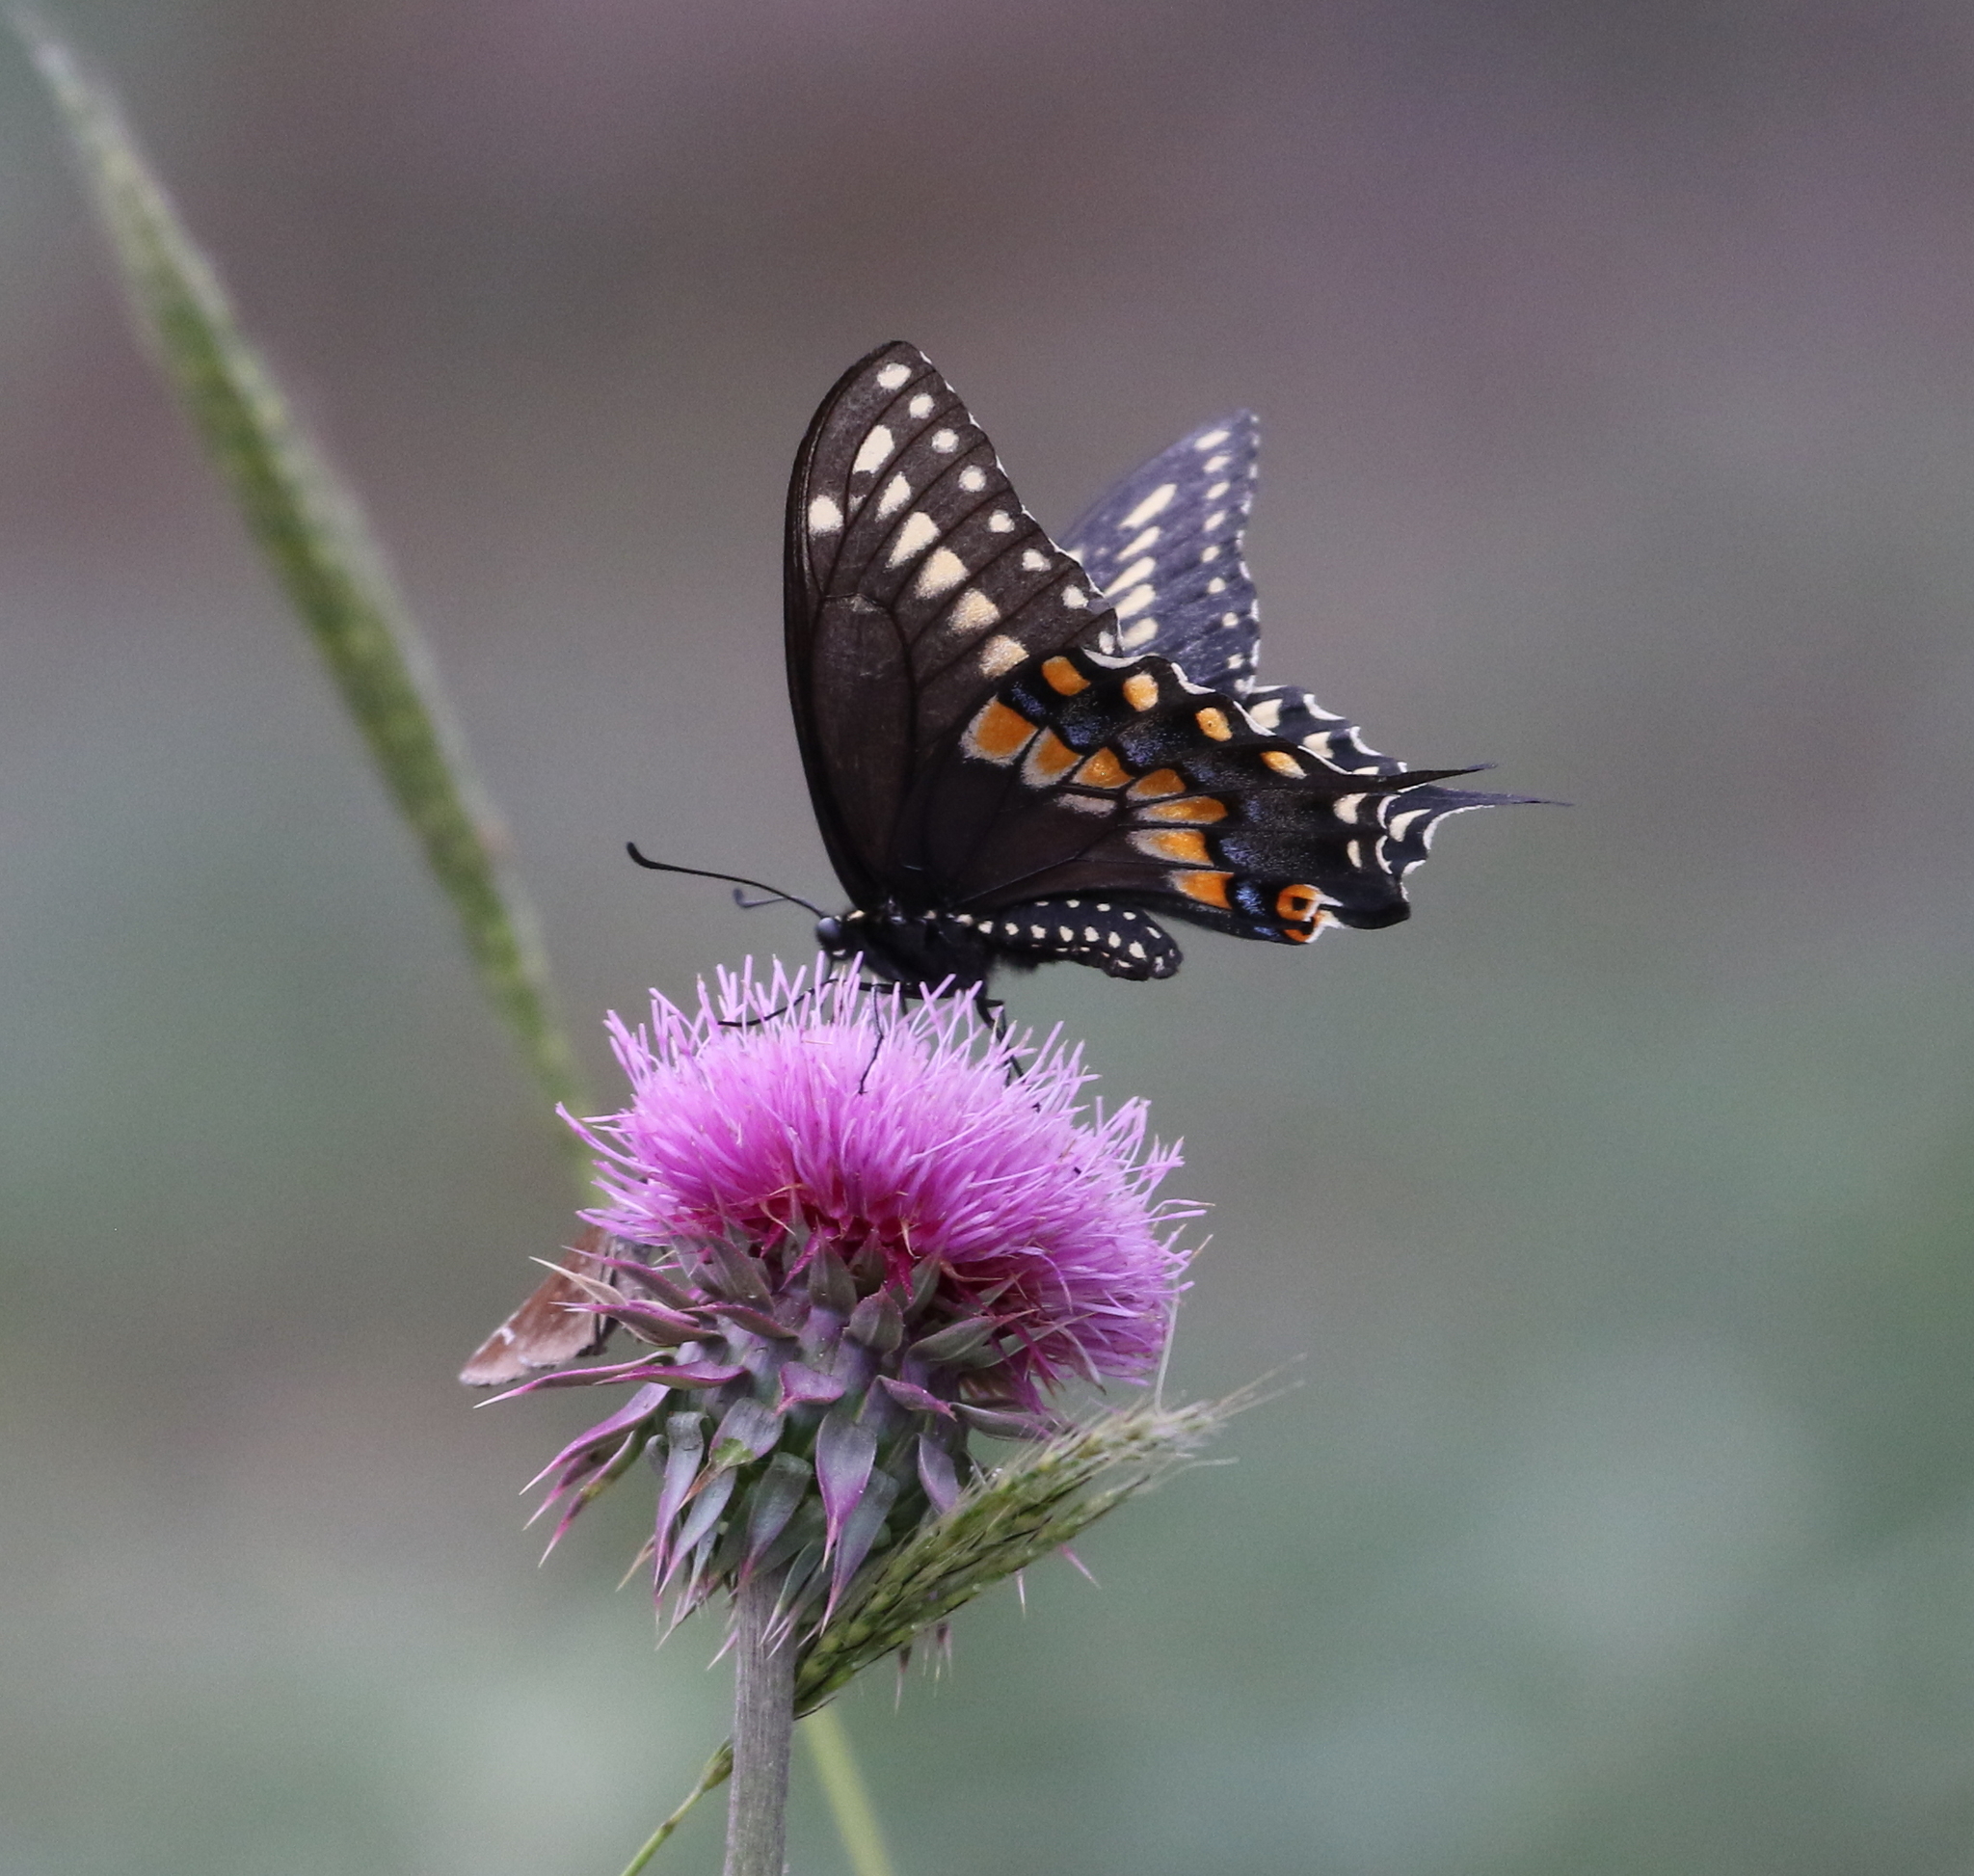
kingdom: Animalia
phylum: Arthropoda
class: Insecta
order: Lepidoptera
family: Papilionidae
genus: Papilio
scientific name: Papilio polyxenes
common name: Black swallowtail
